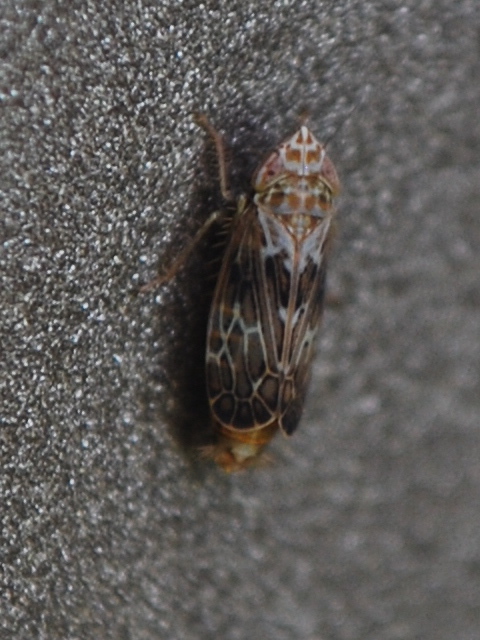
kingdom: Animalia
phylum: Arthropoda
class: Insecta
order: Hemiptera
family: Cicadellidae
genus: Latalus
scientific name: Latalus sayii
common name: Say’s leafhopper
